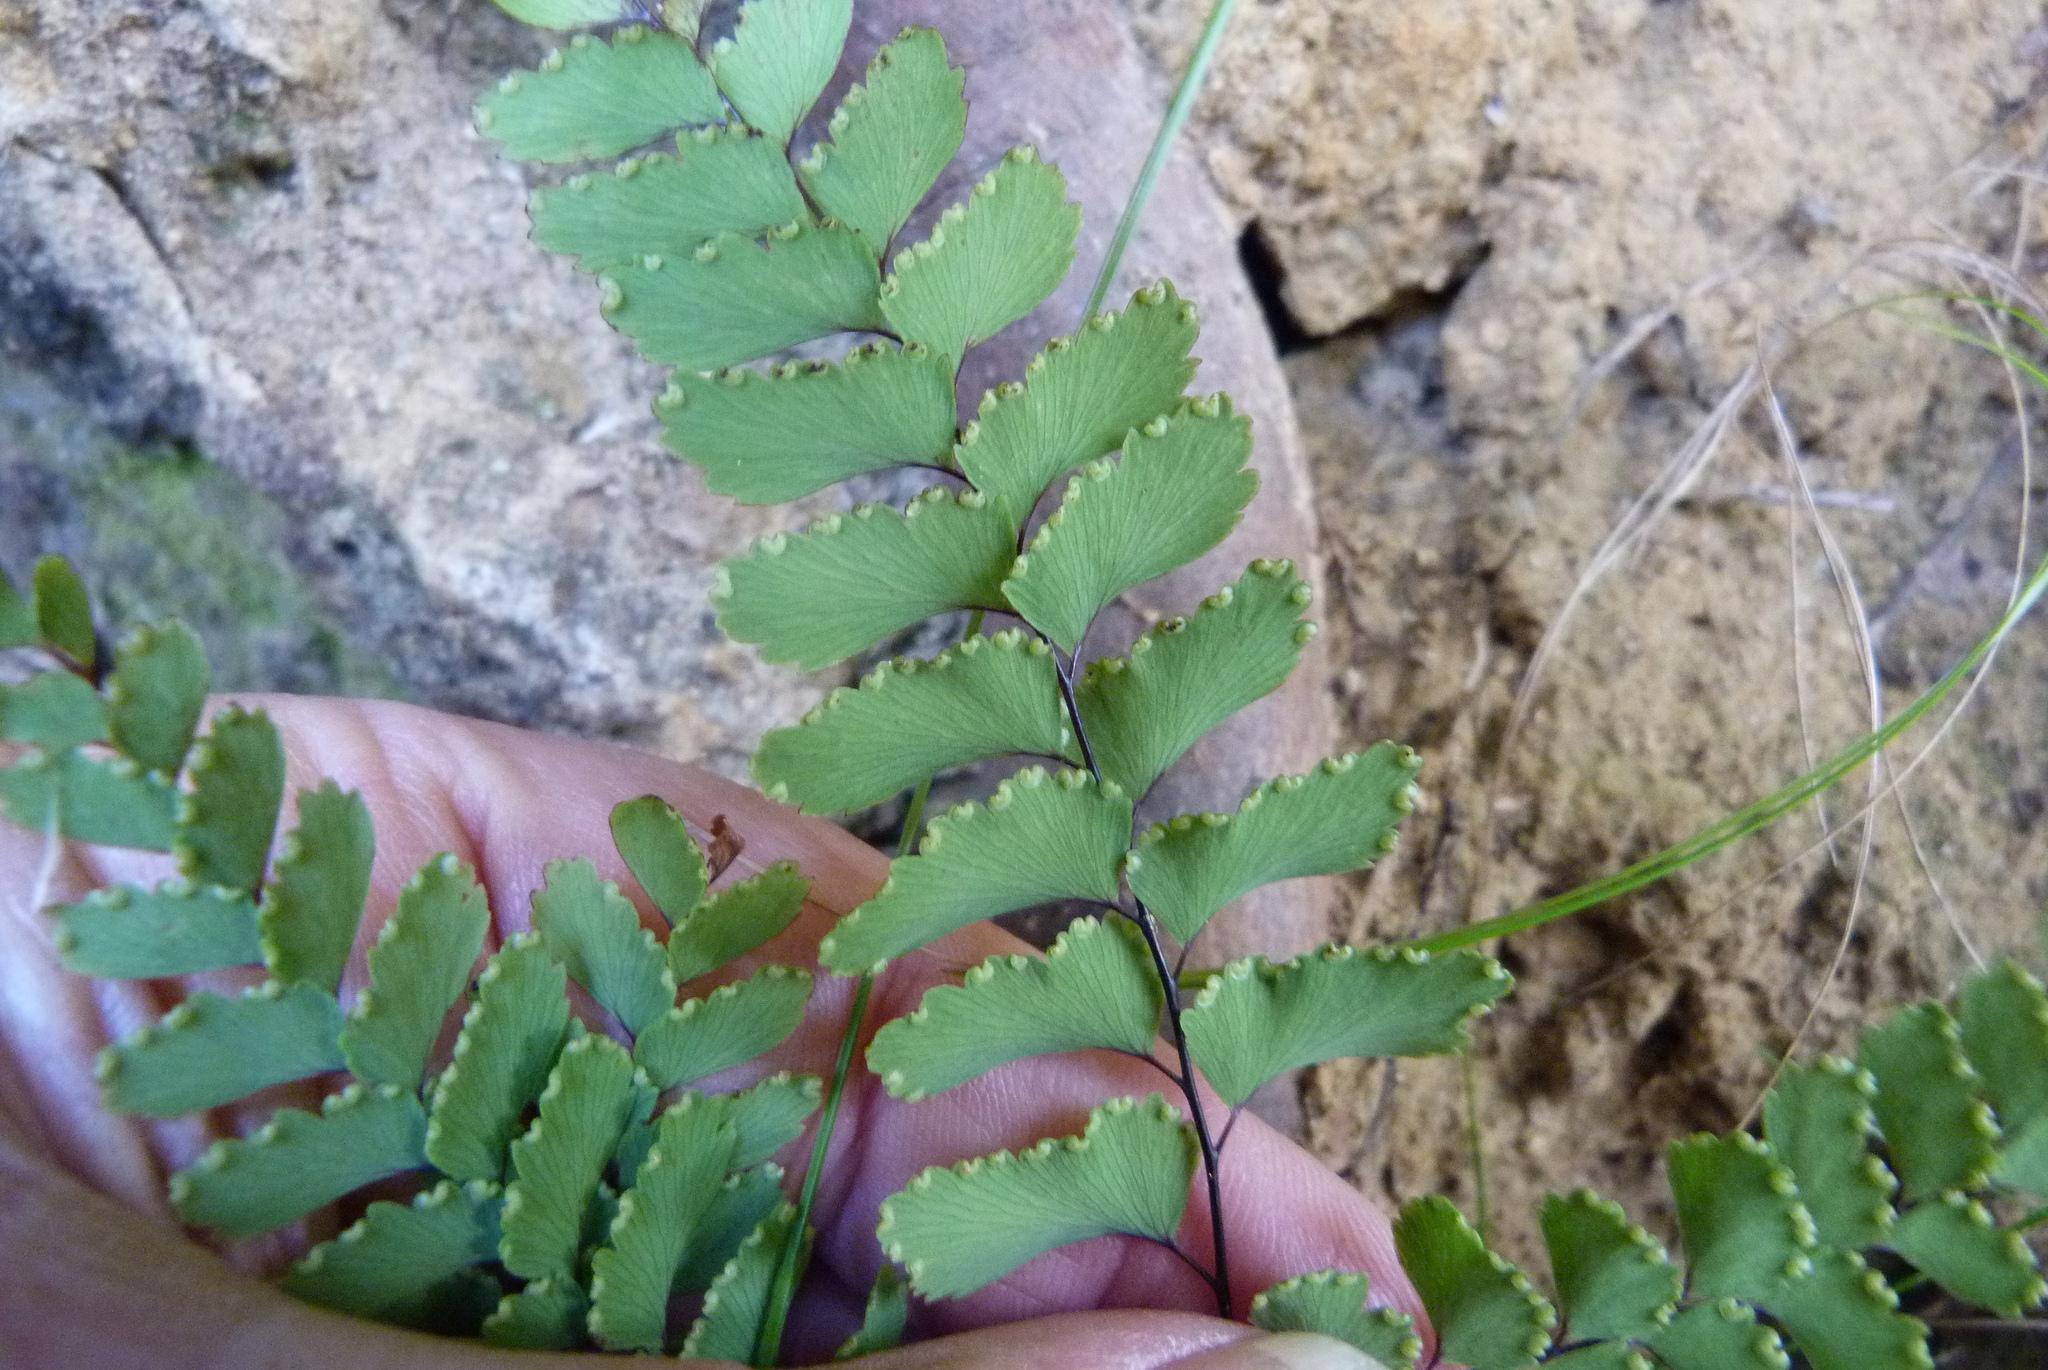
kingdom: Plantae
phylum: Tracheophyta
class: Polypodiopsida
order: Polypodiales
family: Pteridaceae
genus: Adiantum
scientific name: Adiantum cunninghamii
